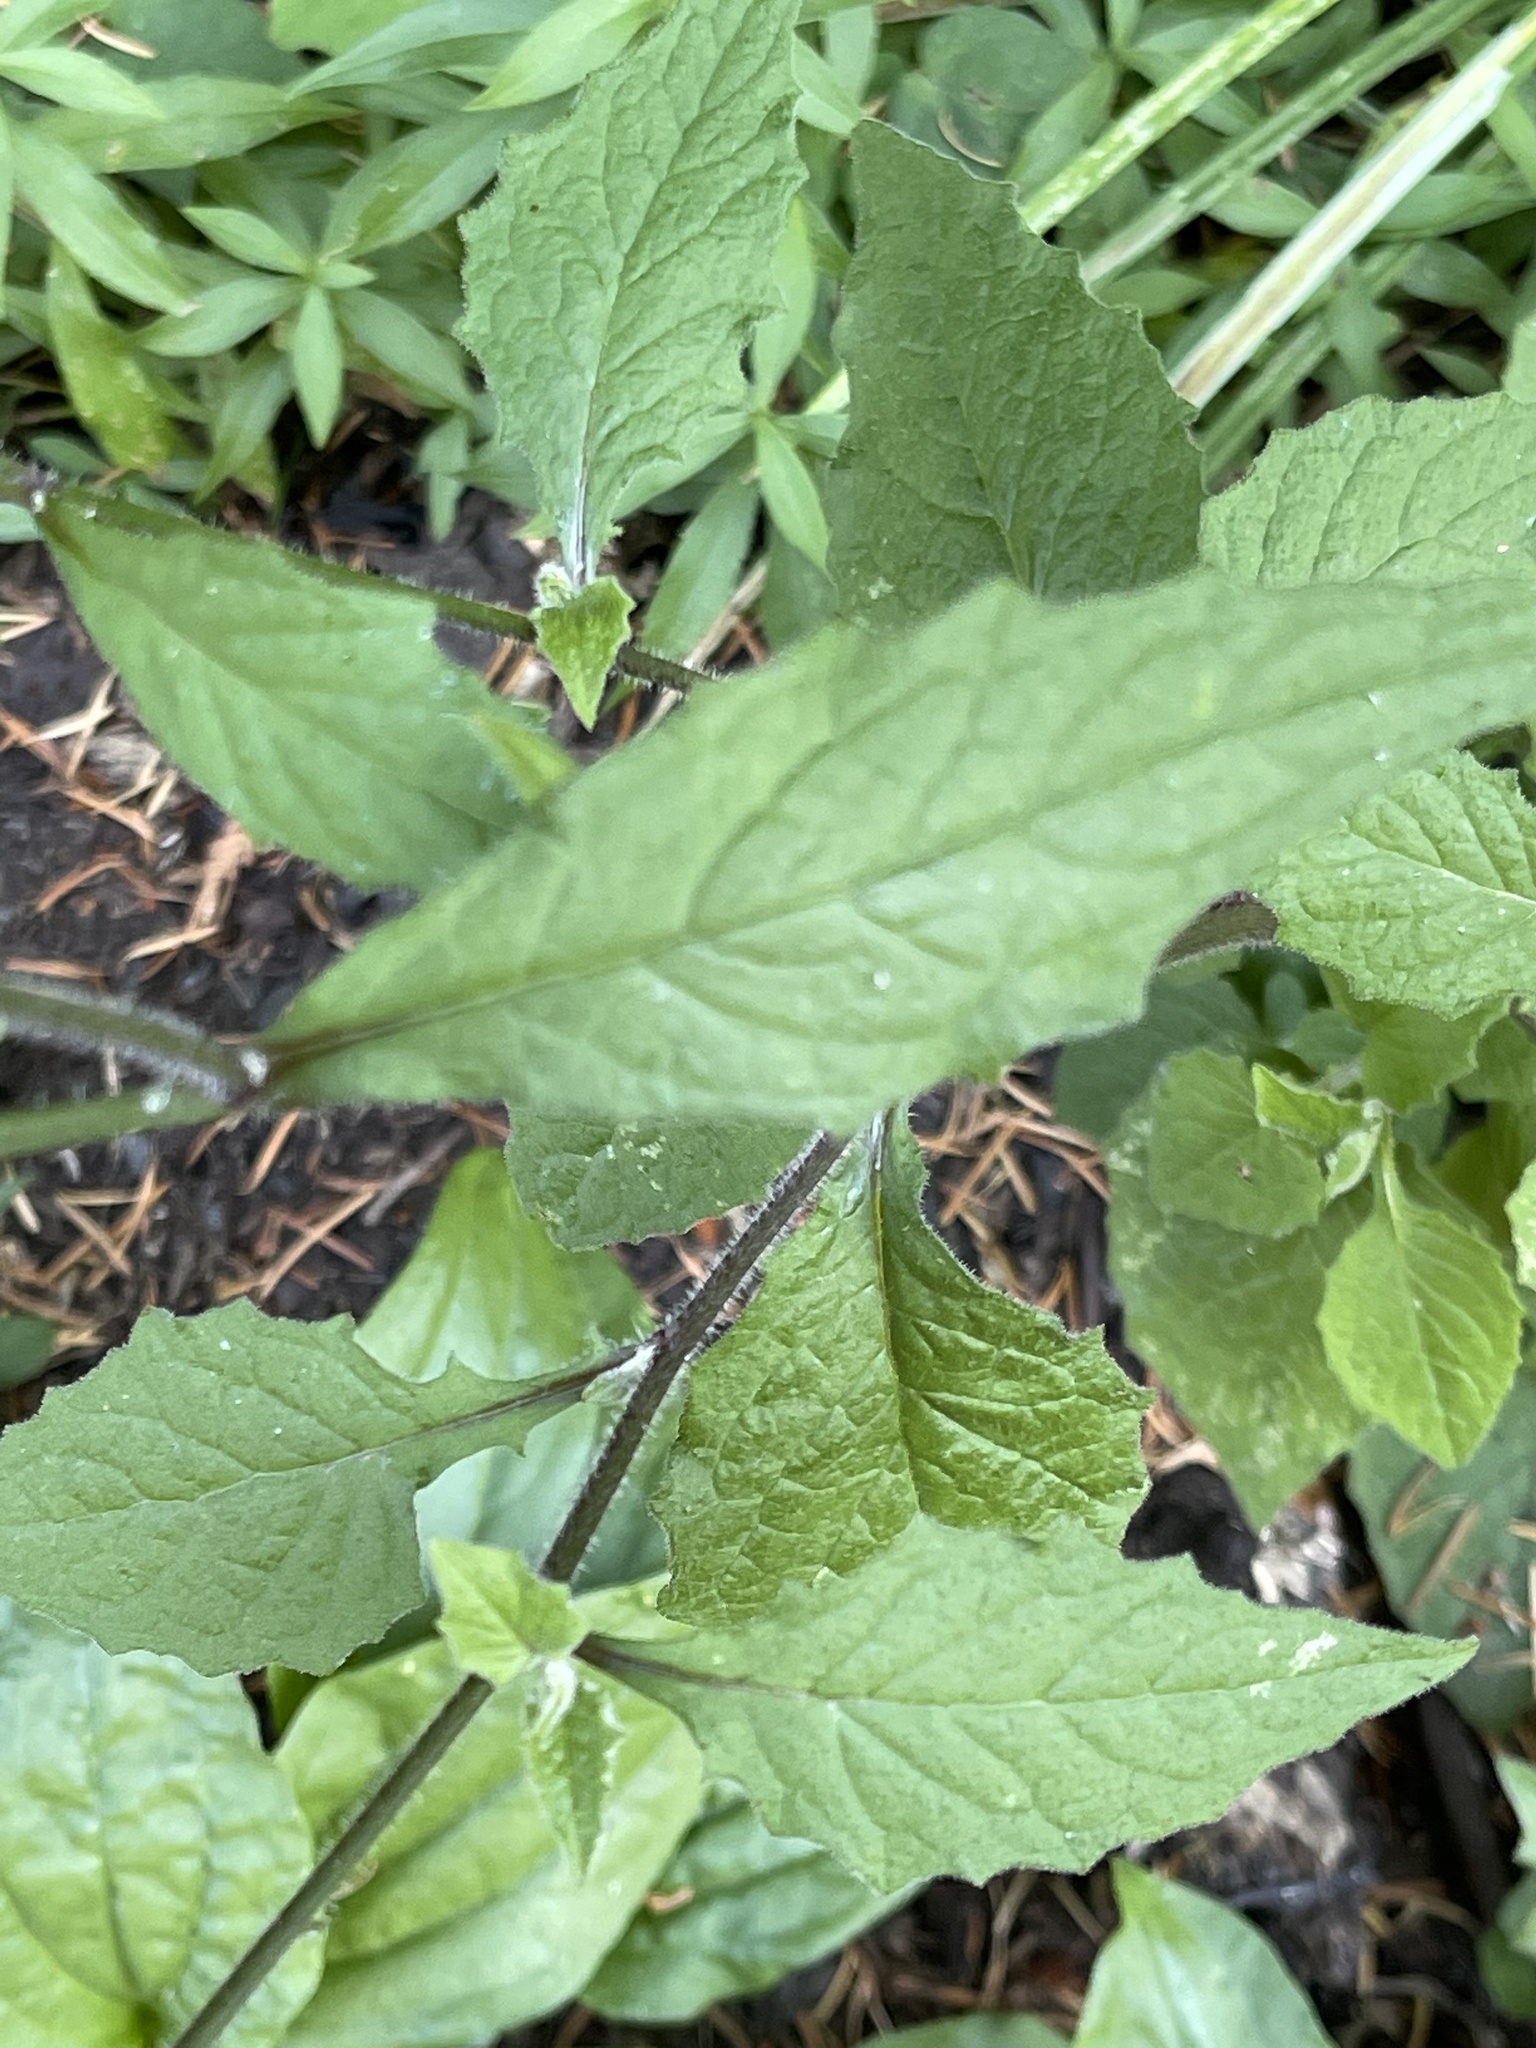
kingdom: Plantae
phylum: Tracheophyta
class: Magnoliopsida
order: Asterales
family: Asteraceae
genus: Lapsana
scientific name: Lapsana communis
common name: Nipplewort
